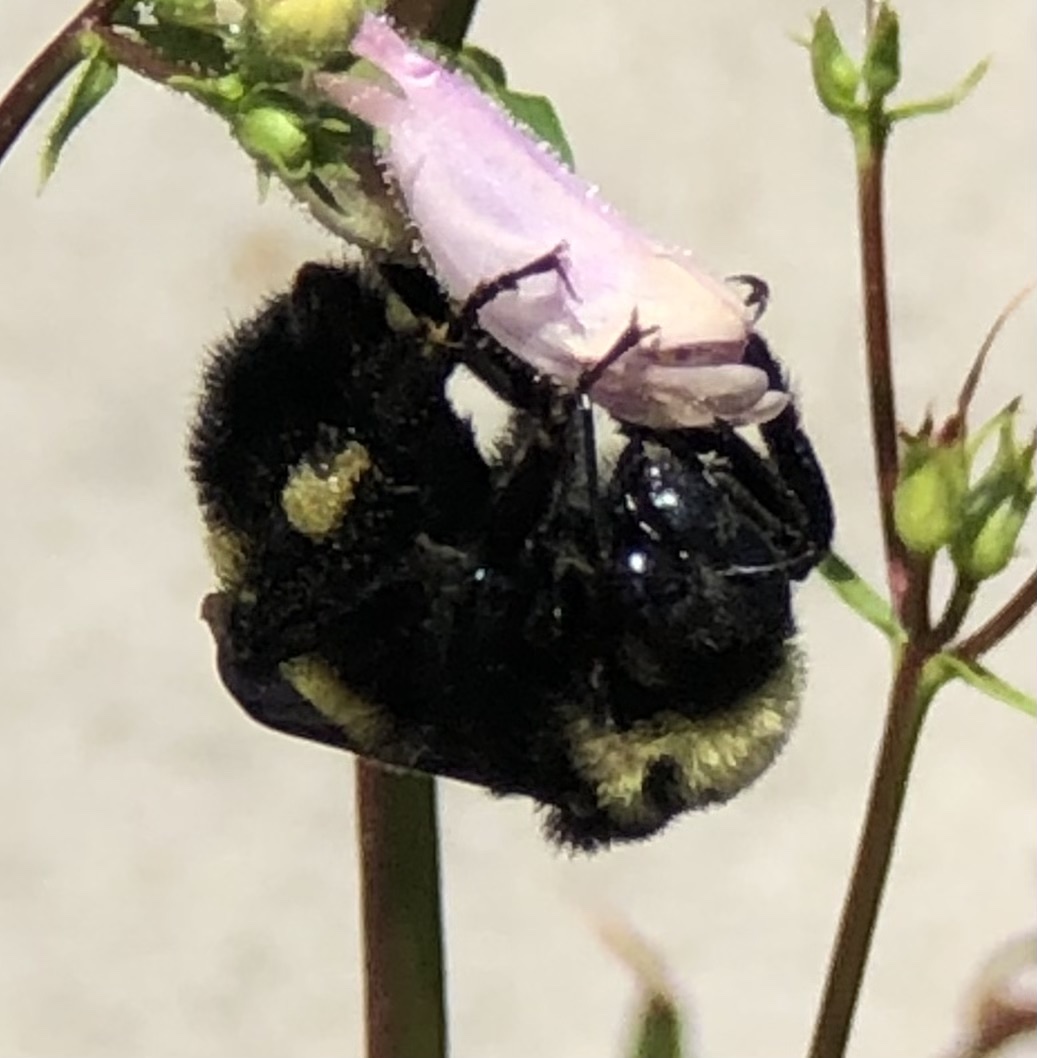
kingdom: Animalia
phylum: Arthropoda
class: Insecta
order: Hymenoptera
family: Apidae
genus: Bombus
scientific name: Bombus pensylvanicus
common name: Bumble bee
